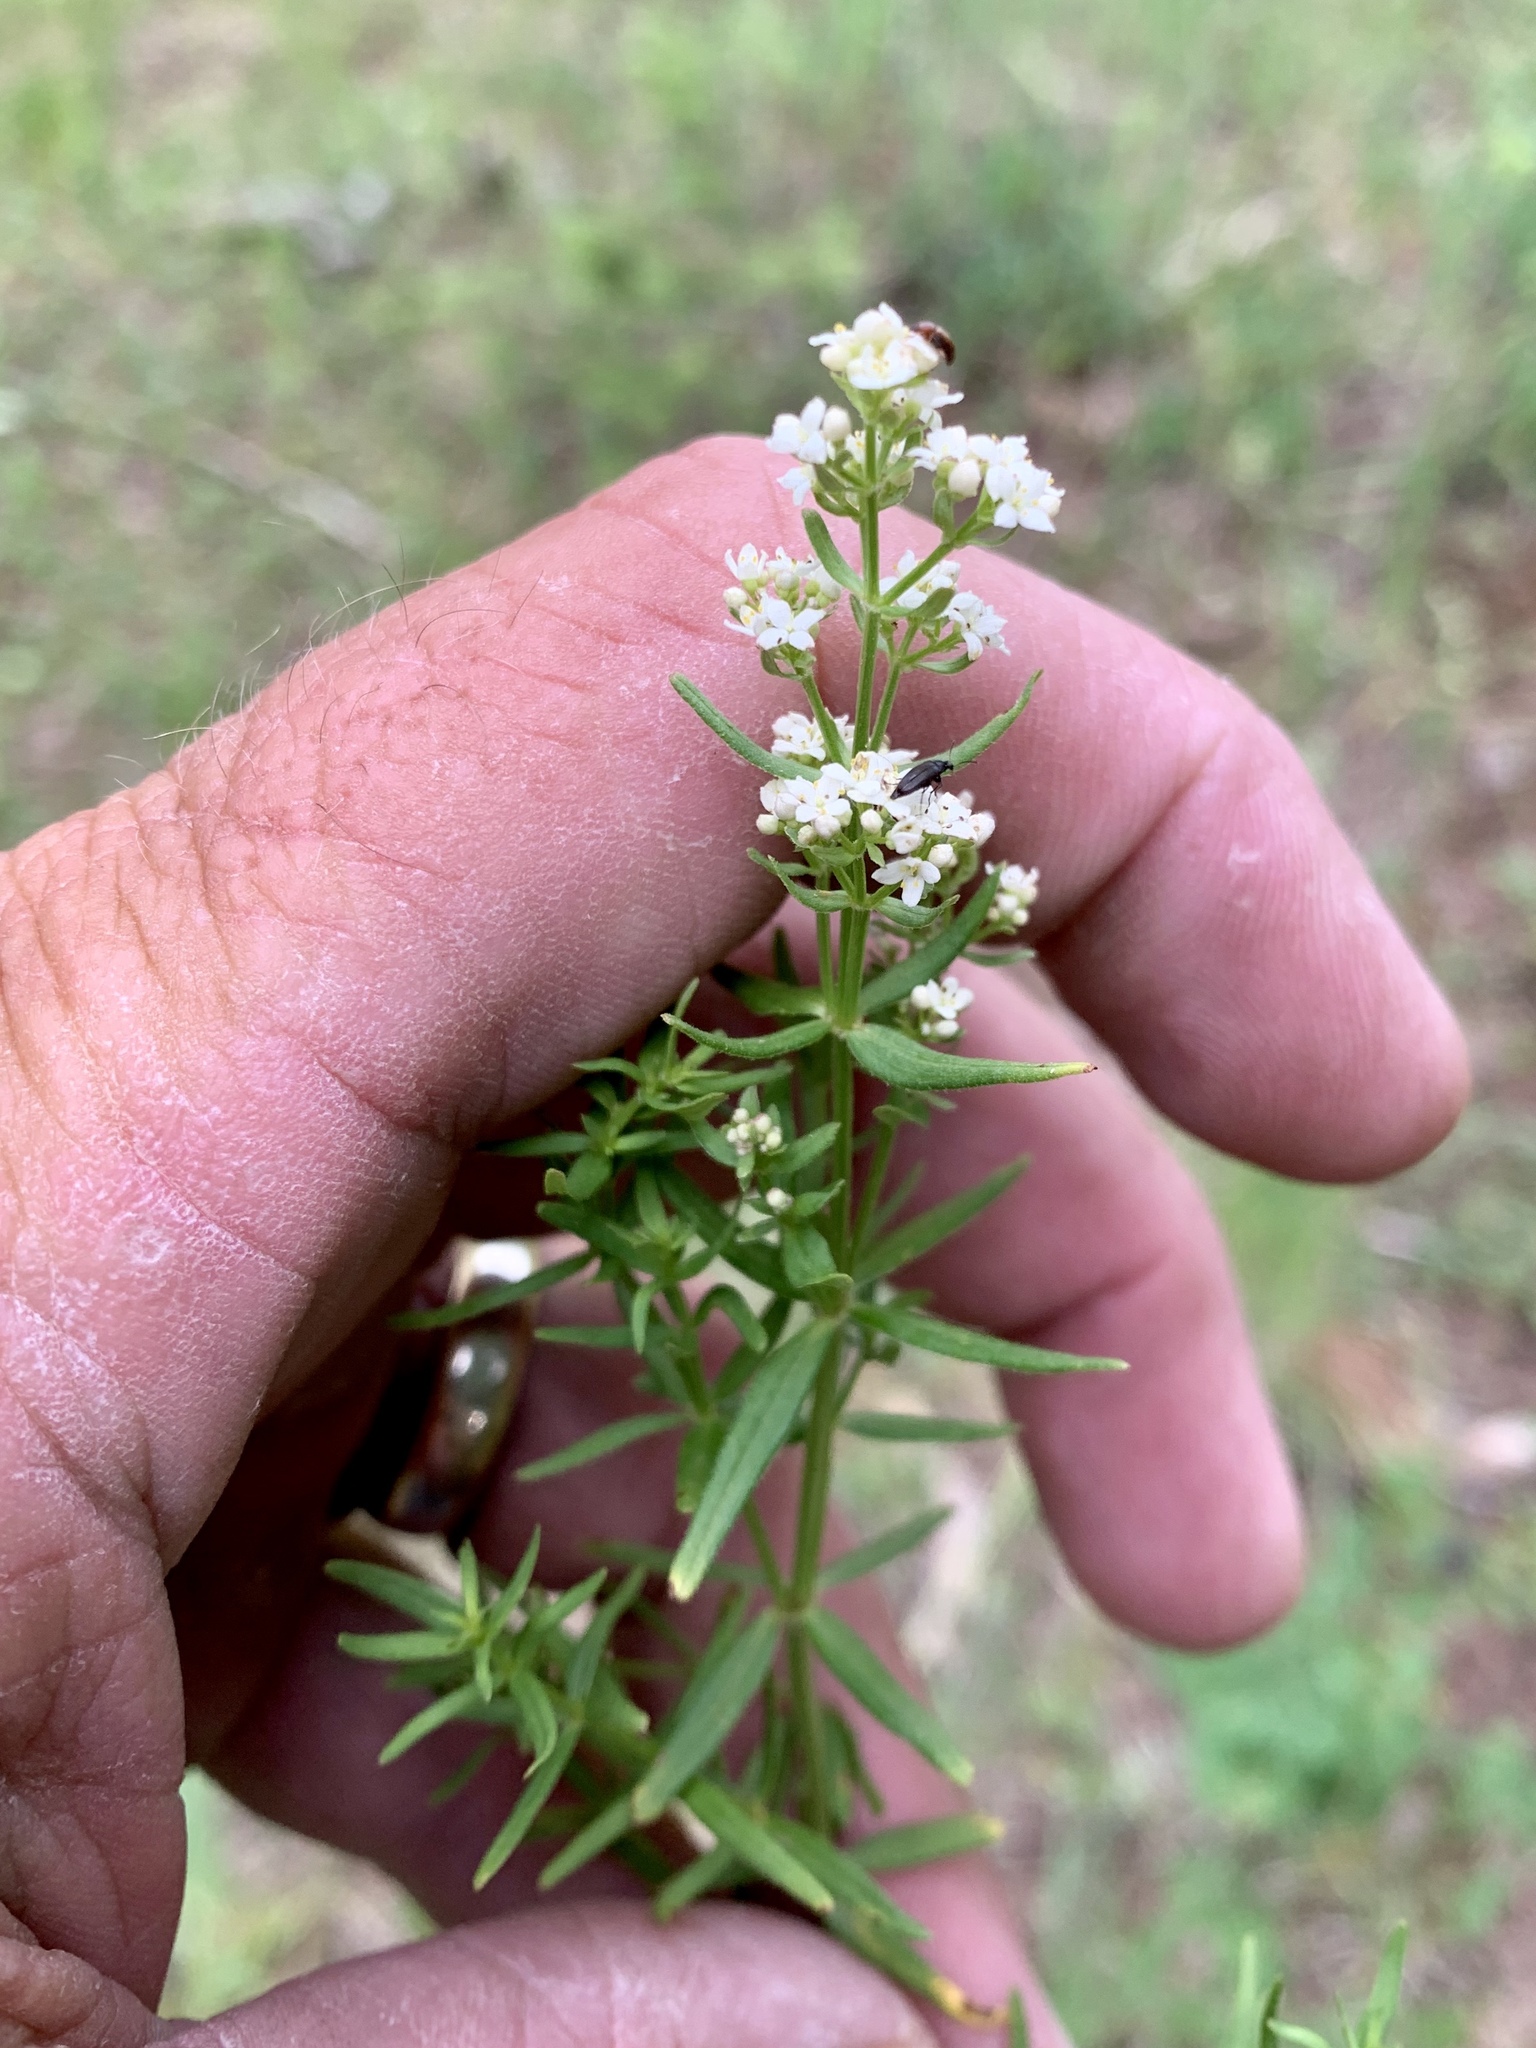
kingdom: Plantae
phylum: Tracheophyta
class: Magnoliopsida
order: Gentianales
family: Rubiaceae
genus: Galium
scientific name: Galium boreale
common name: Northern bedstraw
